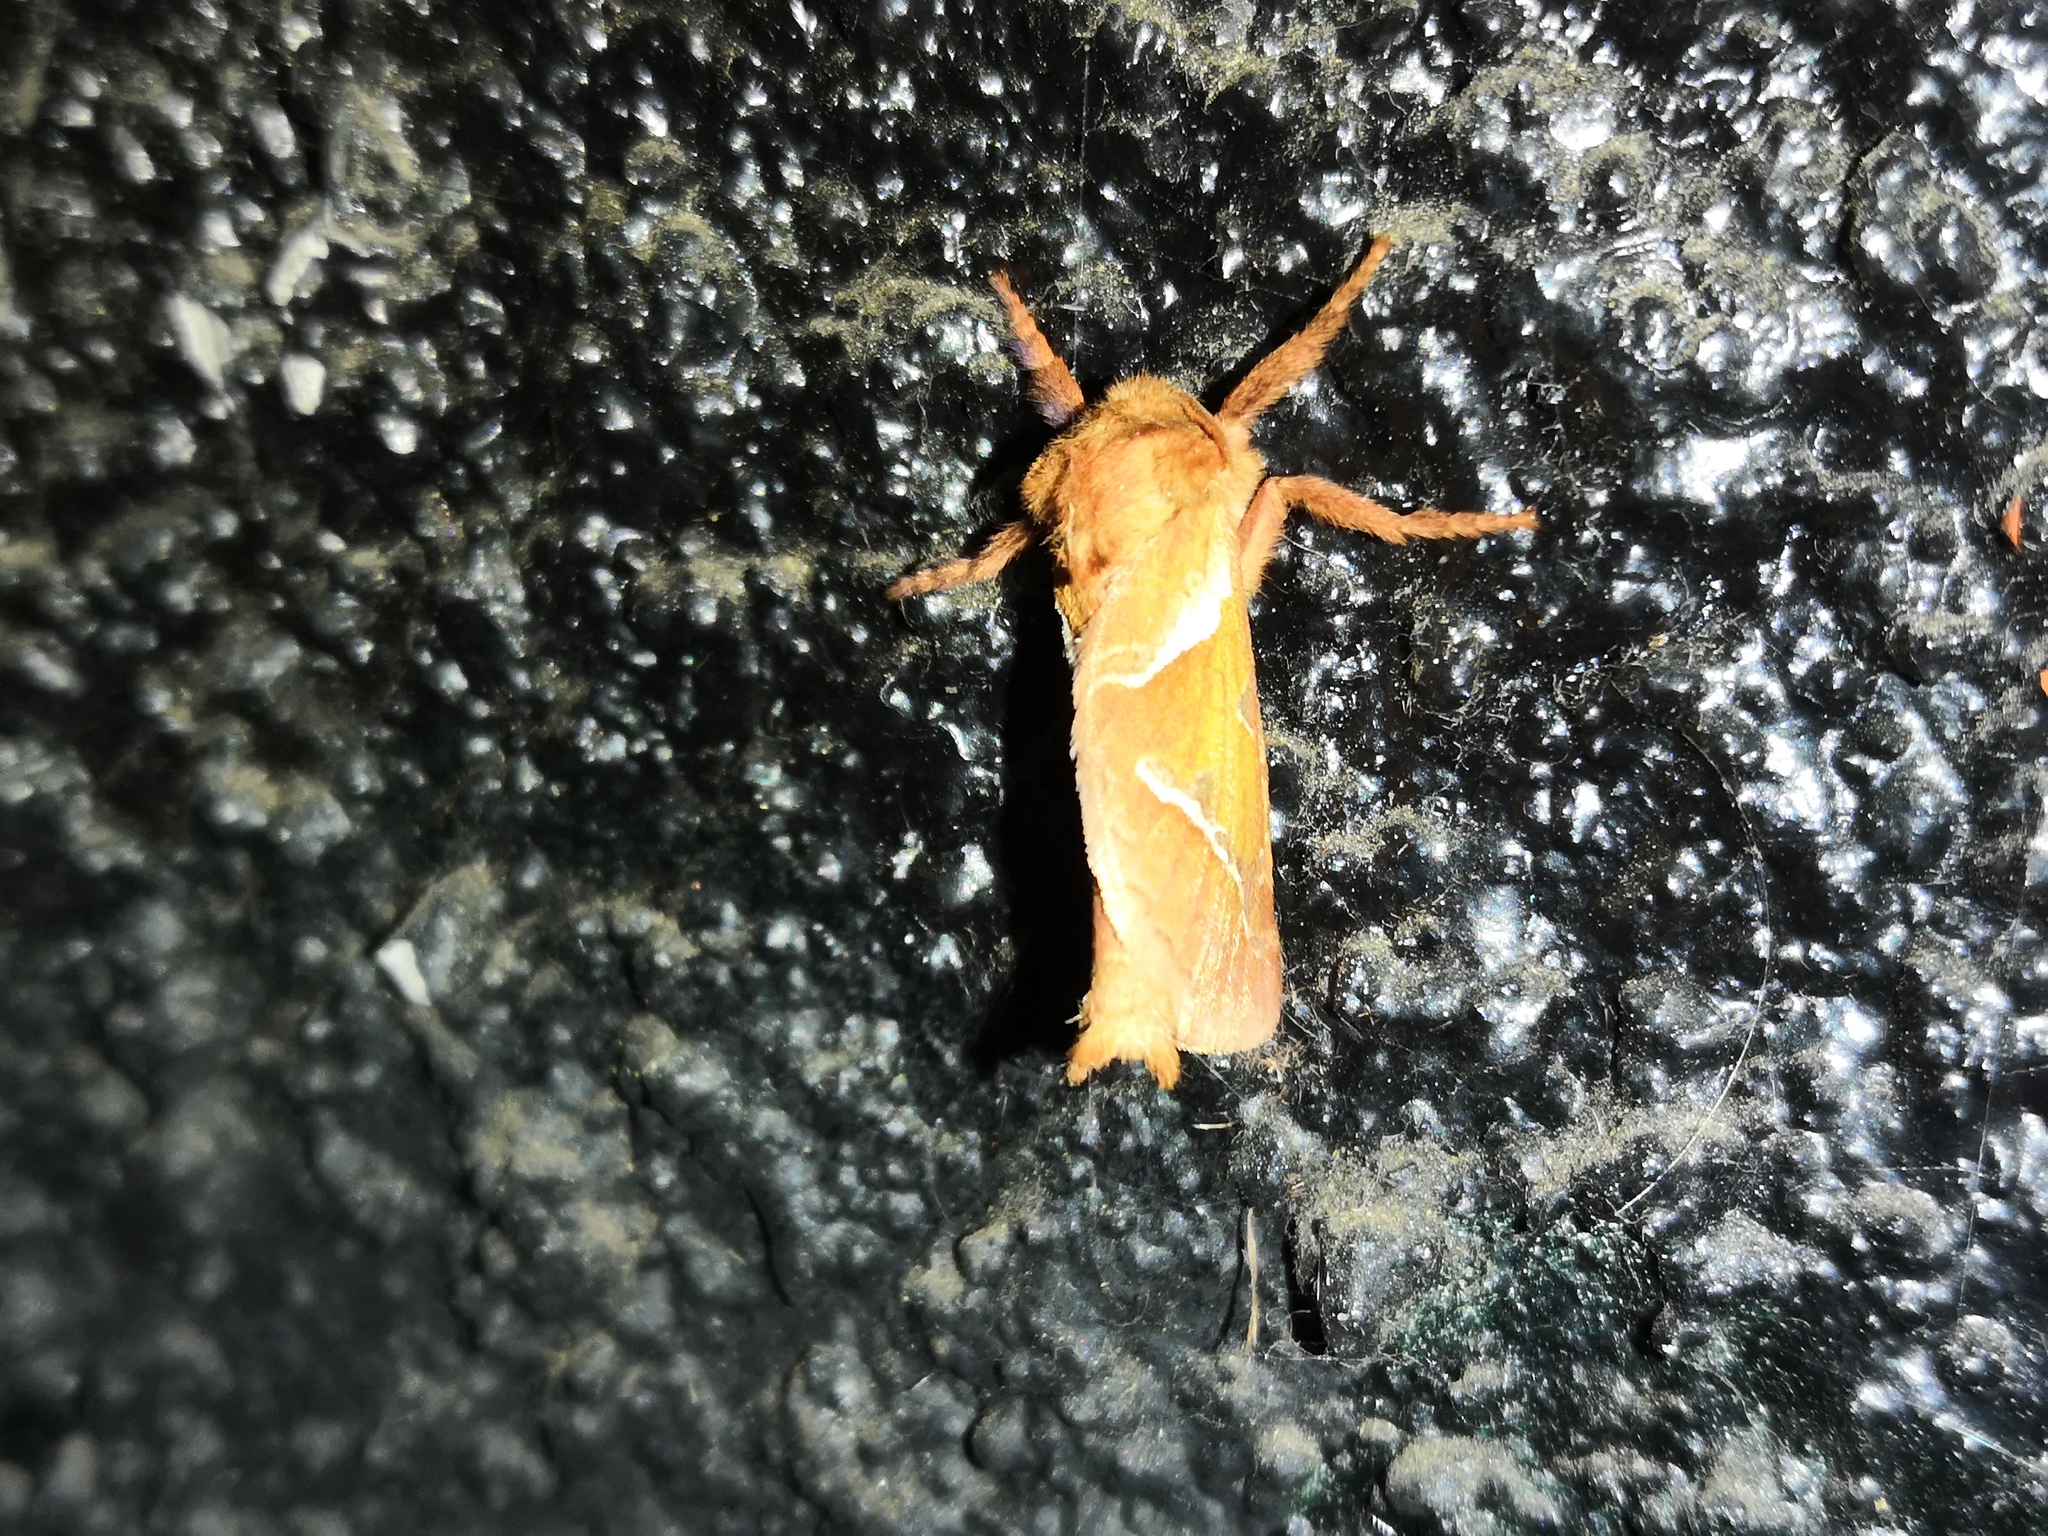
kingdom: Animalia
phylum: Arthropoda
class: Insecta
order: Lepidoptera
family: Hepialidae
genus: Triodia
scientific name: Triodia sylvina
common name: Orange swift
